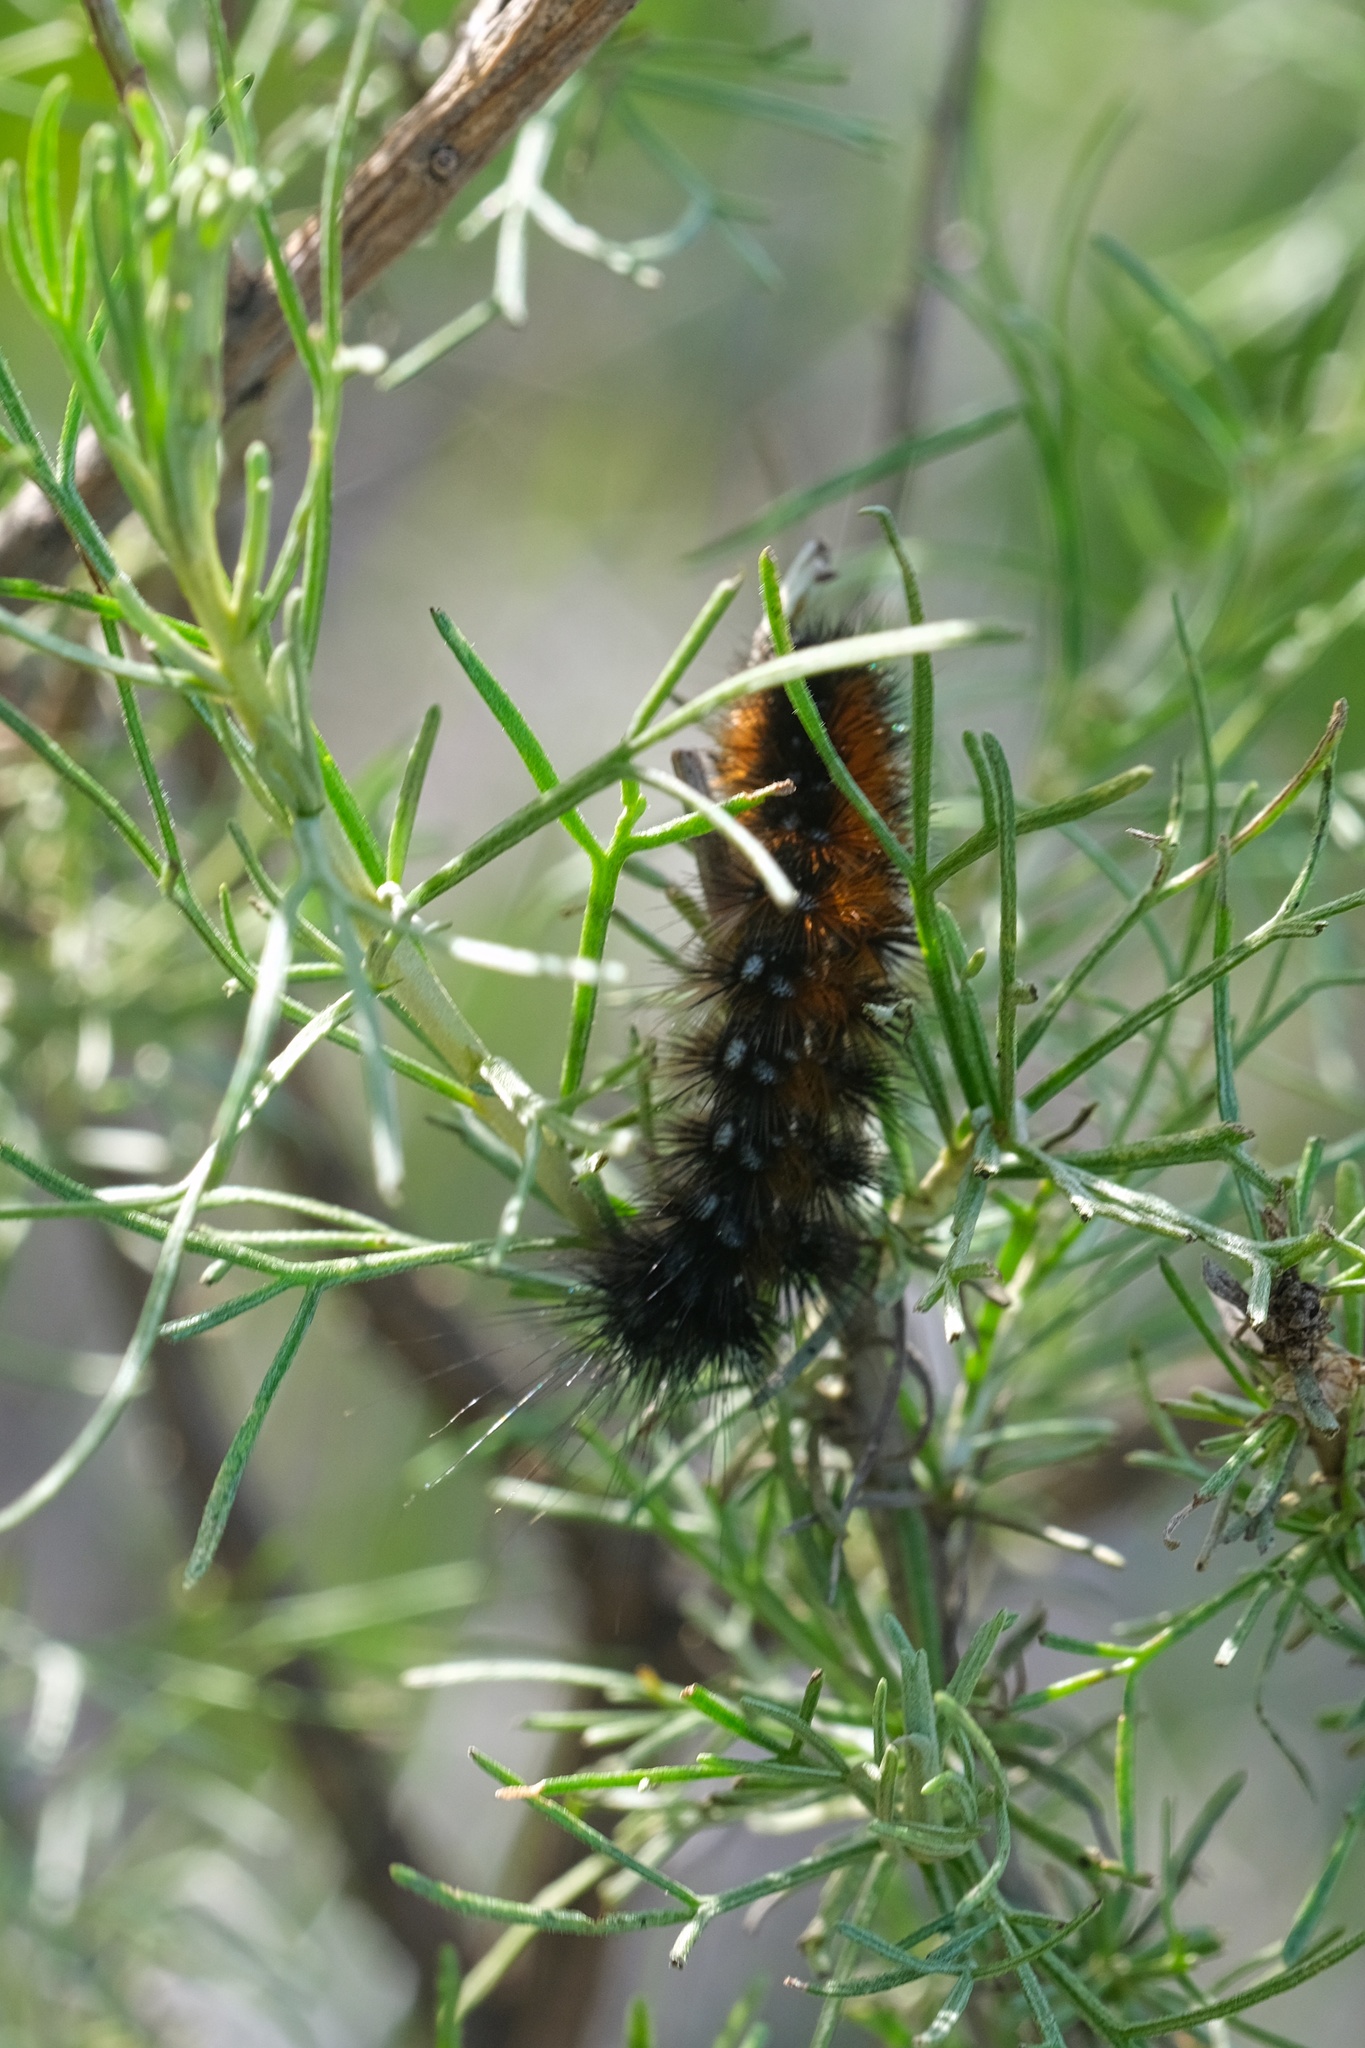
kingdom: Animalia
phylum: Arthropoda
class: Insecta
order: Lepidoptera
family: Erebidae
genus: Estigmene
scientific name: Estigmene acrea
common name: Salt marsh moth
